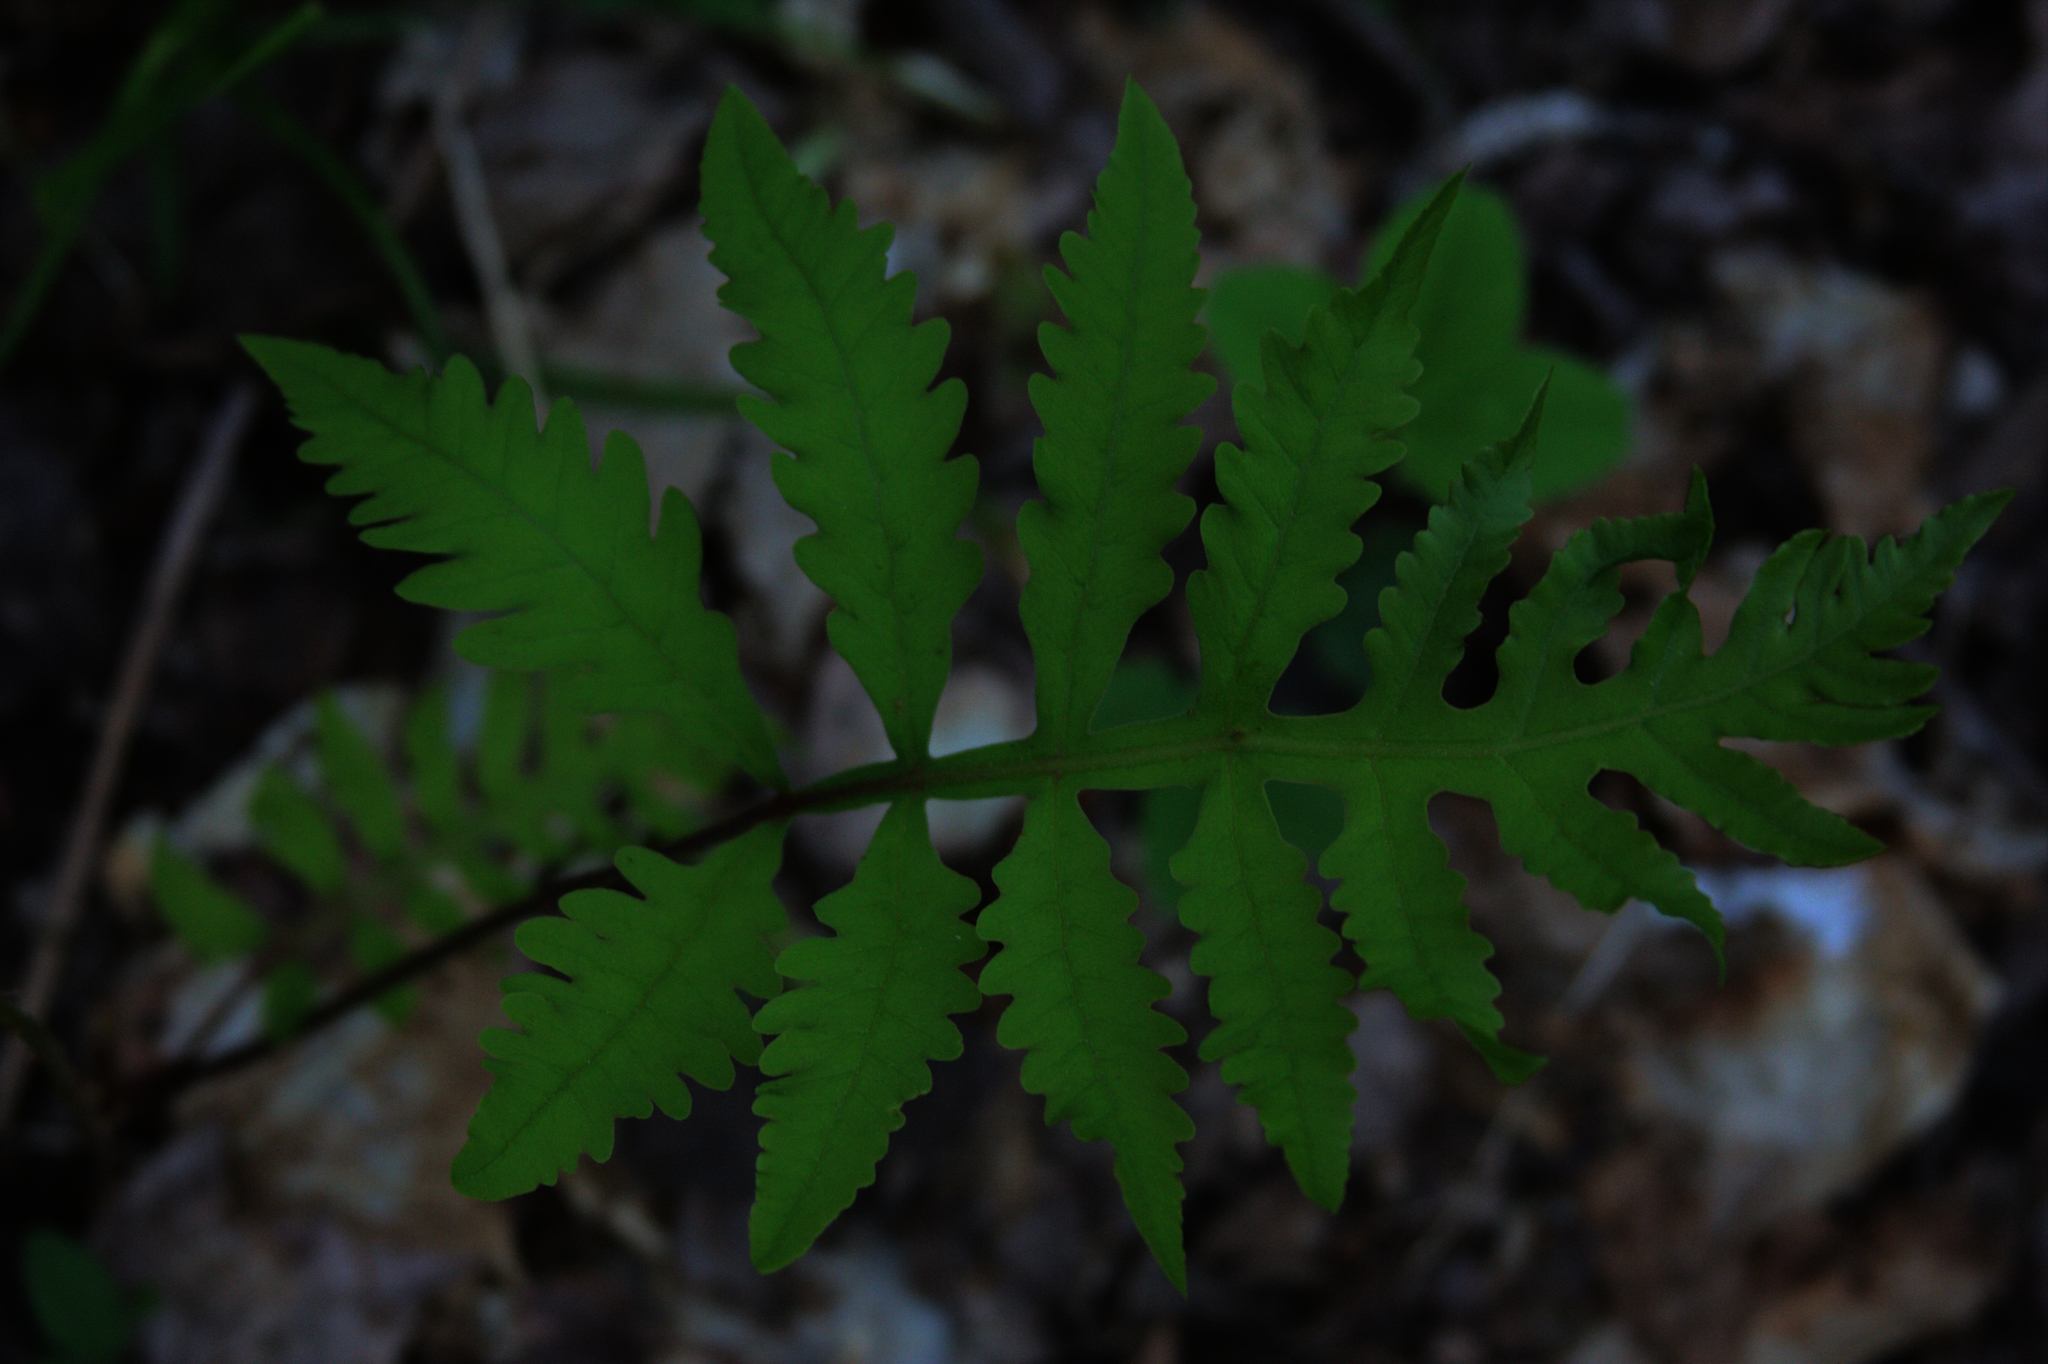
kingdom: Plantae
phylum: Tracheophyta
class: Polypodiopsida
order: Polypodiales
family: Onocleaceae
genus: Onoclea
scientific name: Onoclea sensibilis
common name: Sensitive fern
